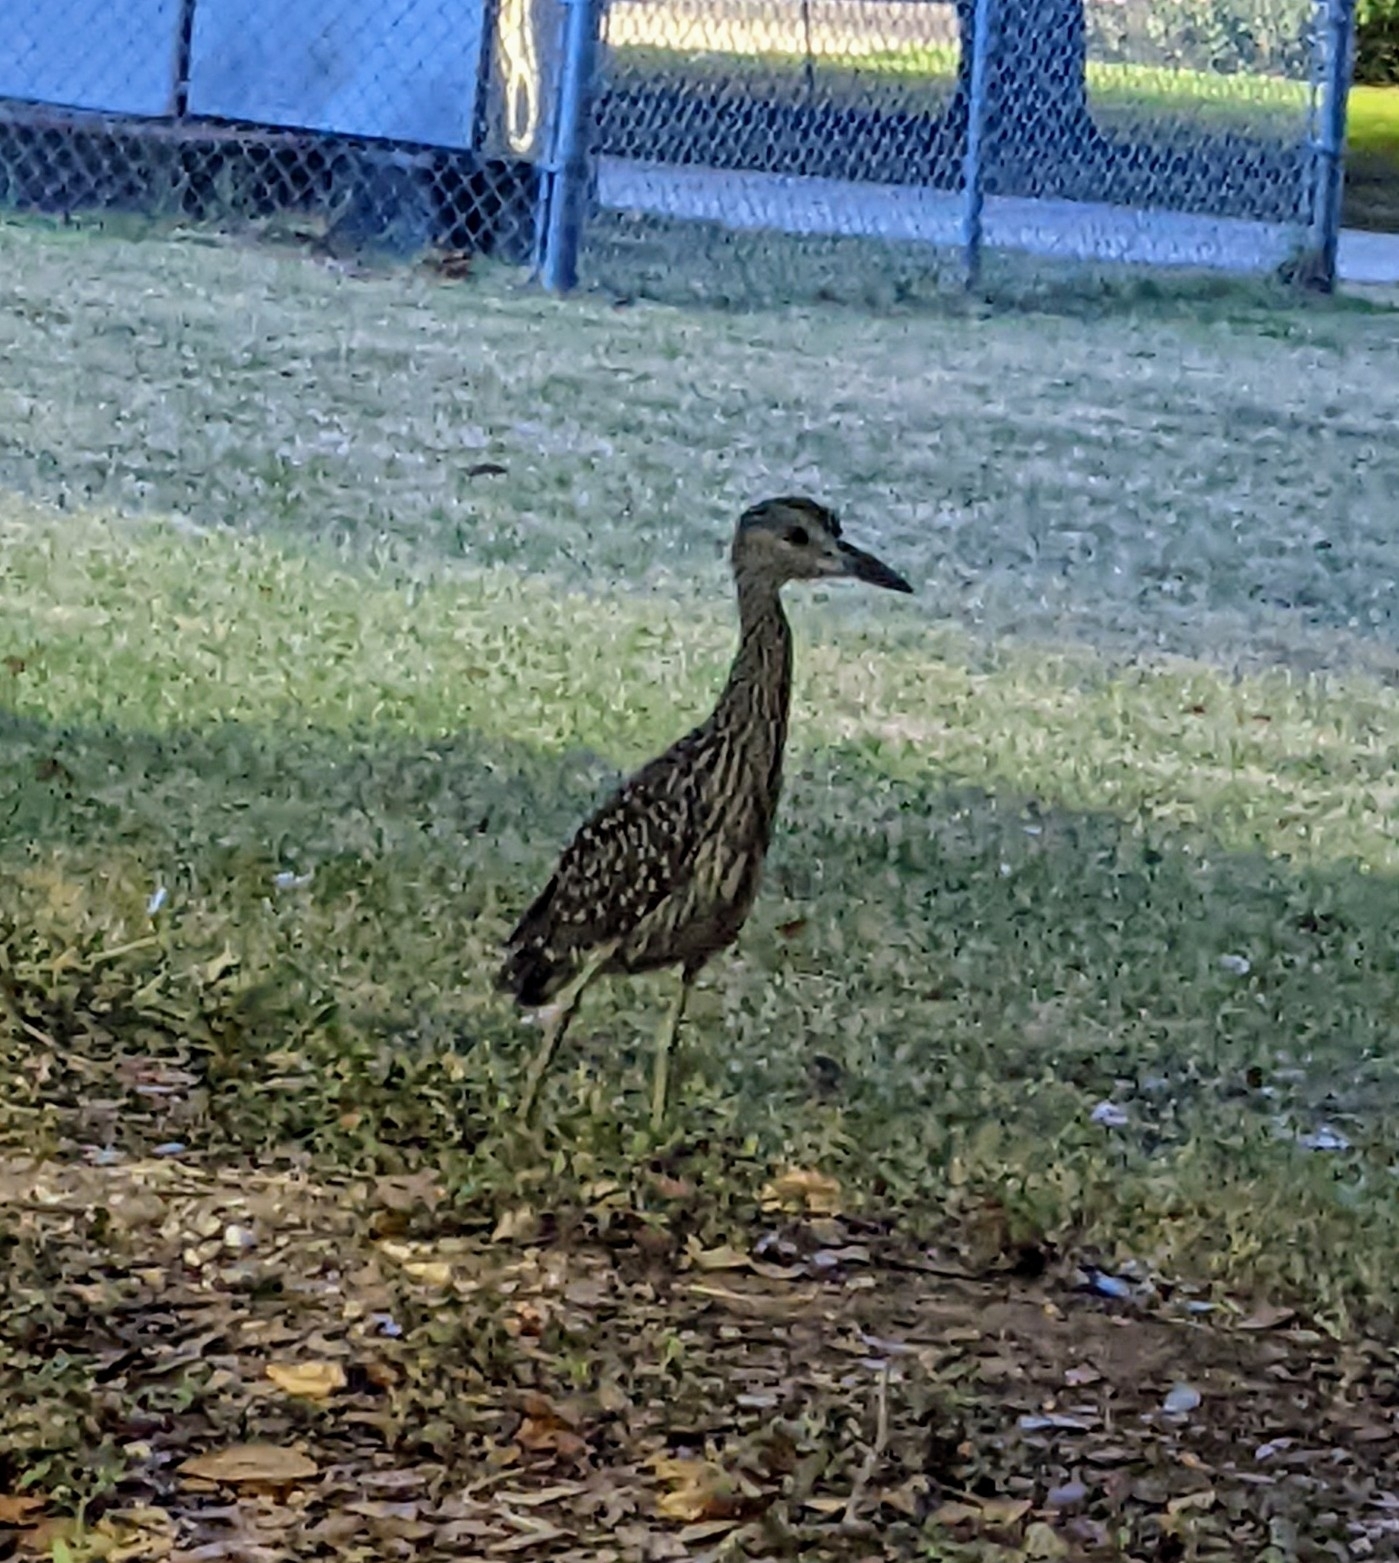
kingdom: Animalia
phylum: Chordata
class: Aves
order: Pelecaniformes
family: Ardeidae
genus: Nyctanassa
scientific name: Nyctanassa violacea
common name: Yellow-crowned night heron
